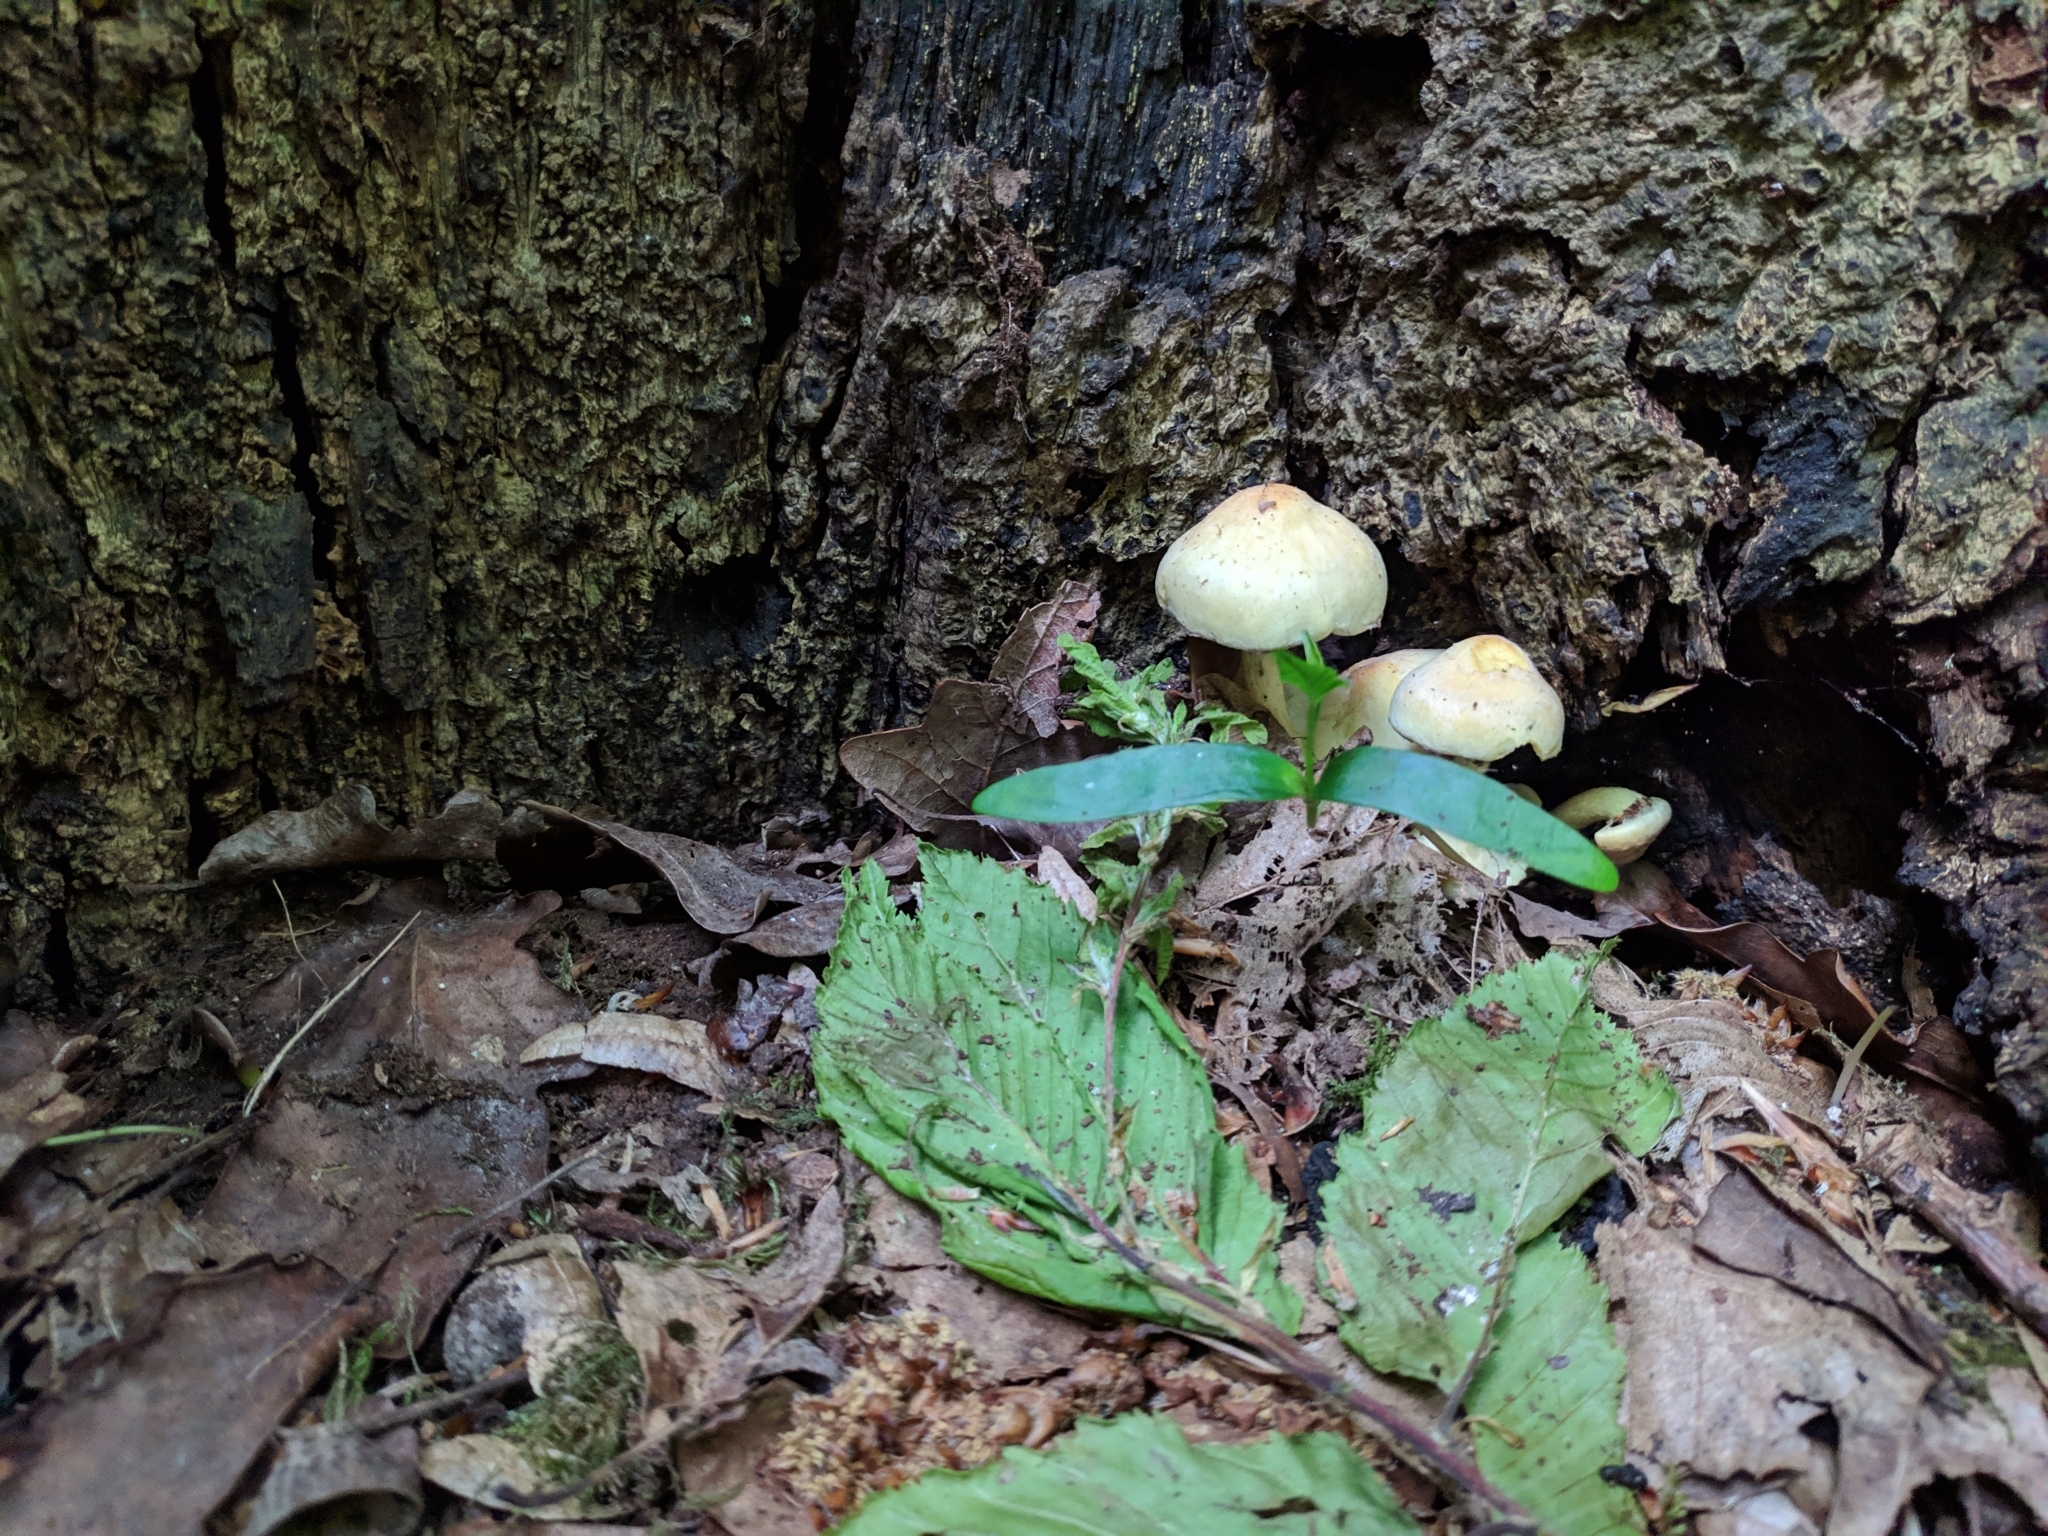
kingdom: Fungi
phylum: Basidiomycota
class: Agaricomycetes
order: Agaricales
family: Strophariaceae
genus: Hypholoma
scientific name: Hypholoma fasciculare
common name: Sulphur tuft
